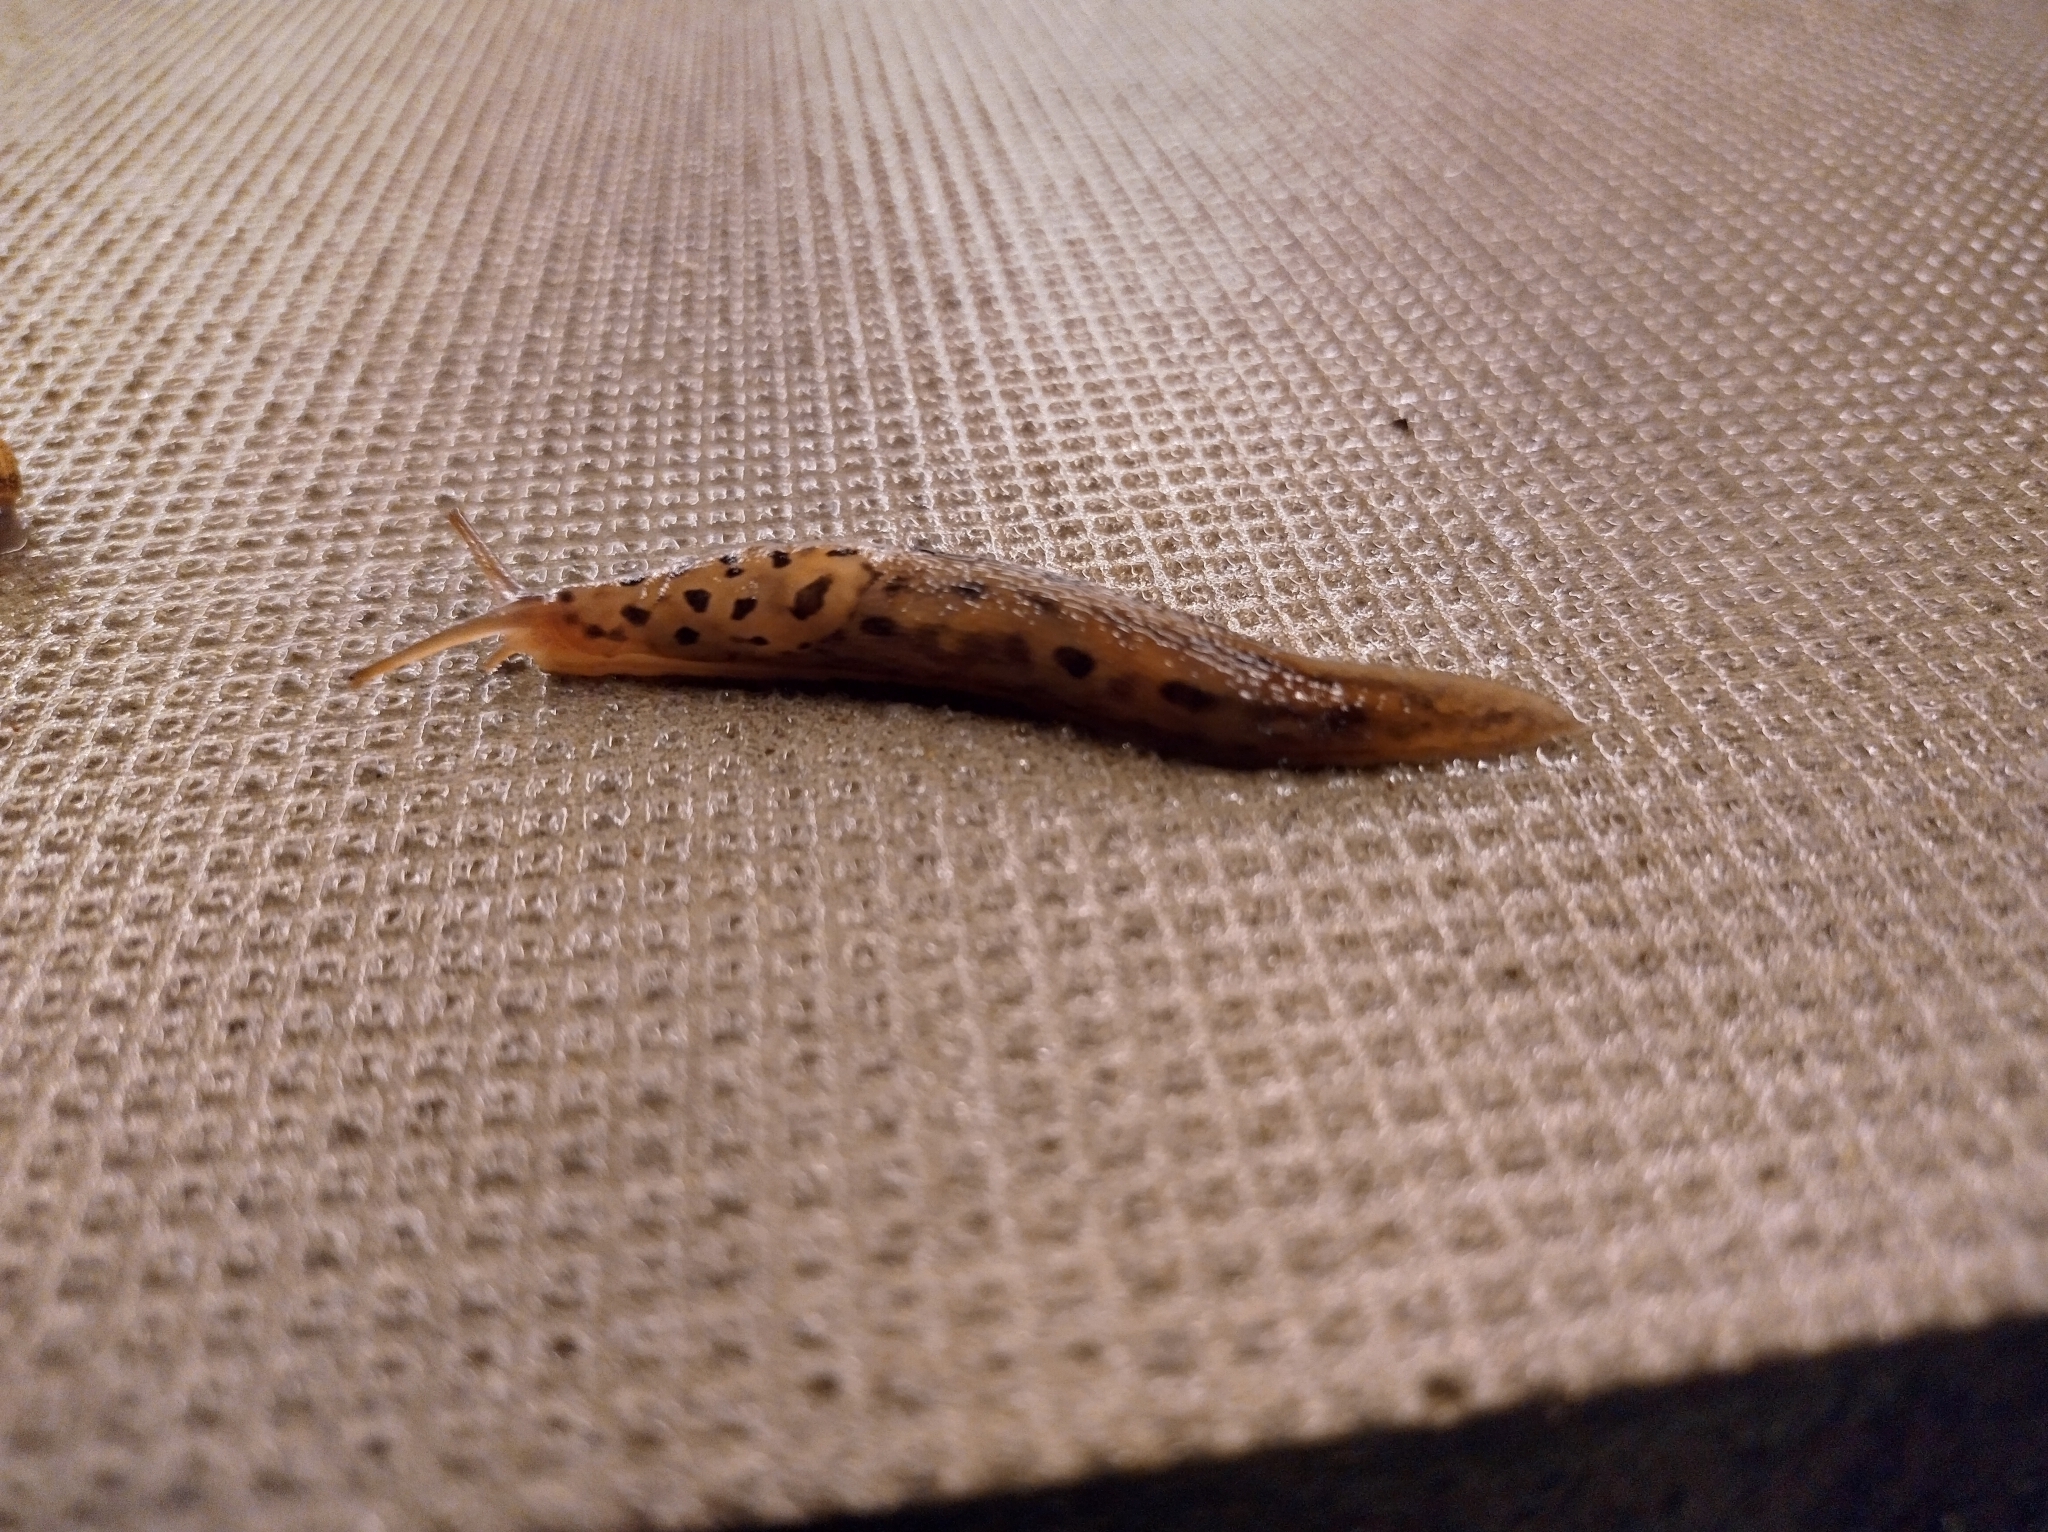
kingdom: Animalia
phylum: Mollusca
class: Gastropoda
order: Stylommatophora
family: Limacidae
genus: Limax
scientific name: Limax maximus
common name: Great grey slug
